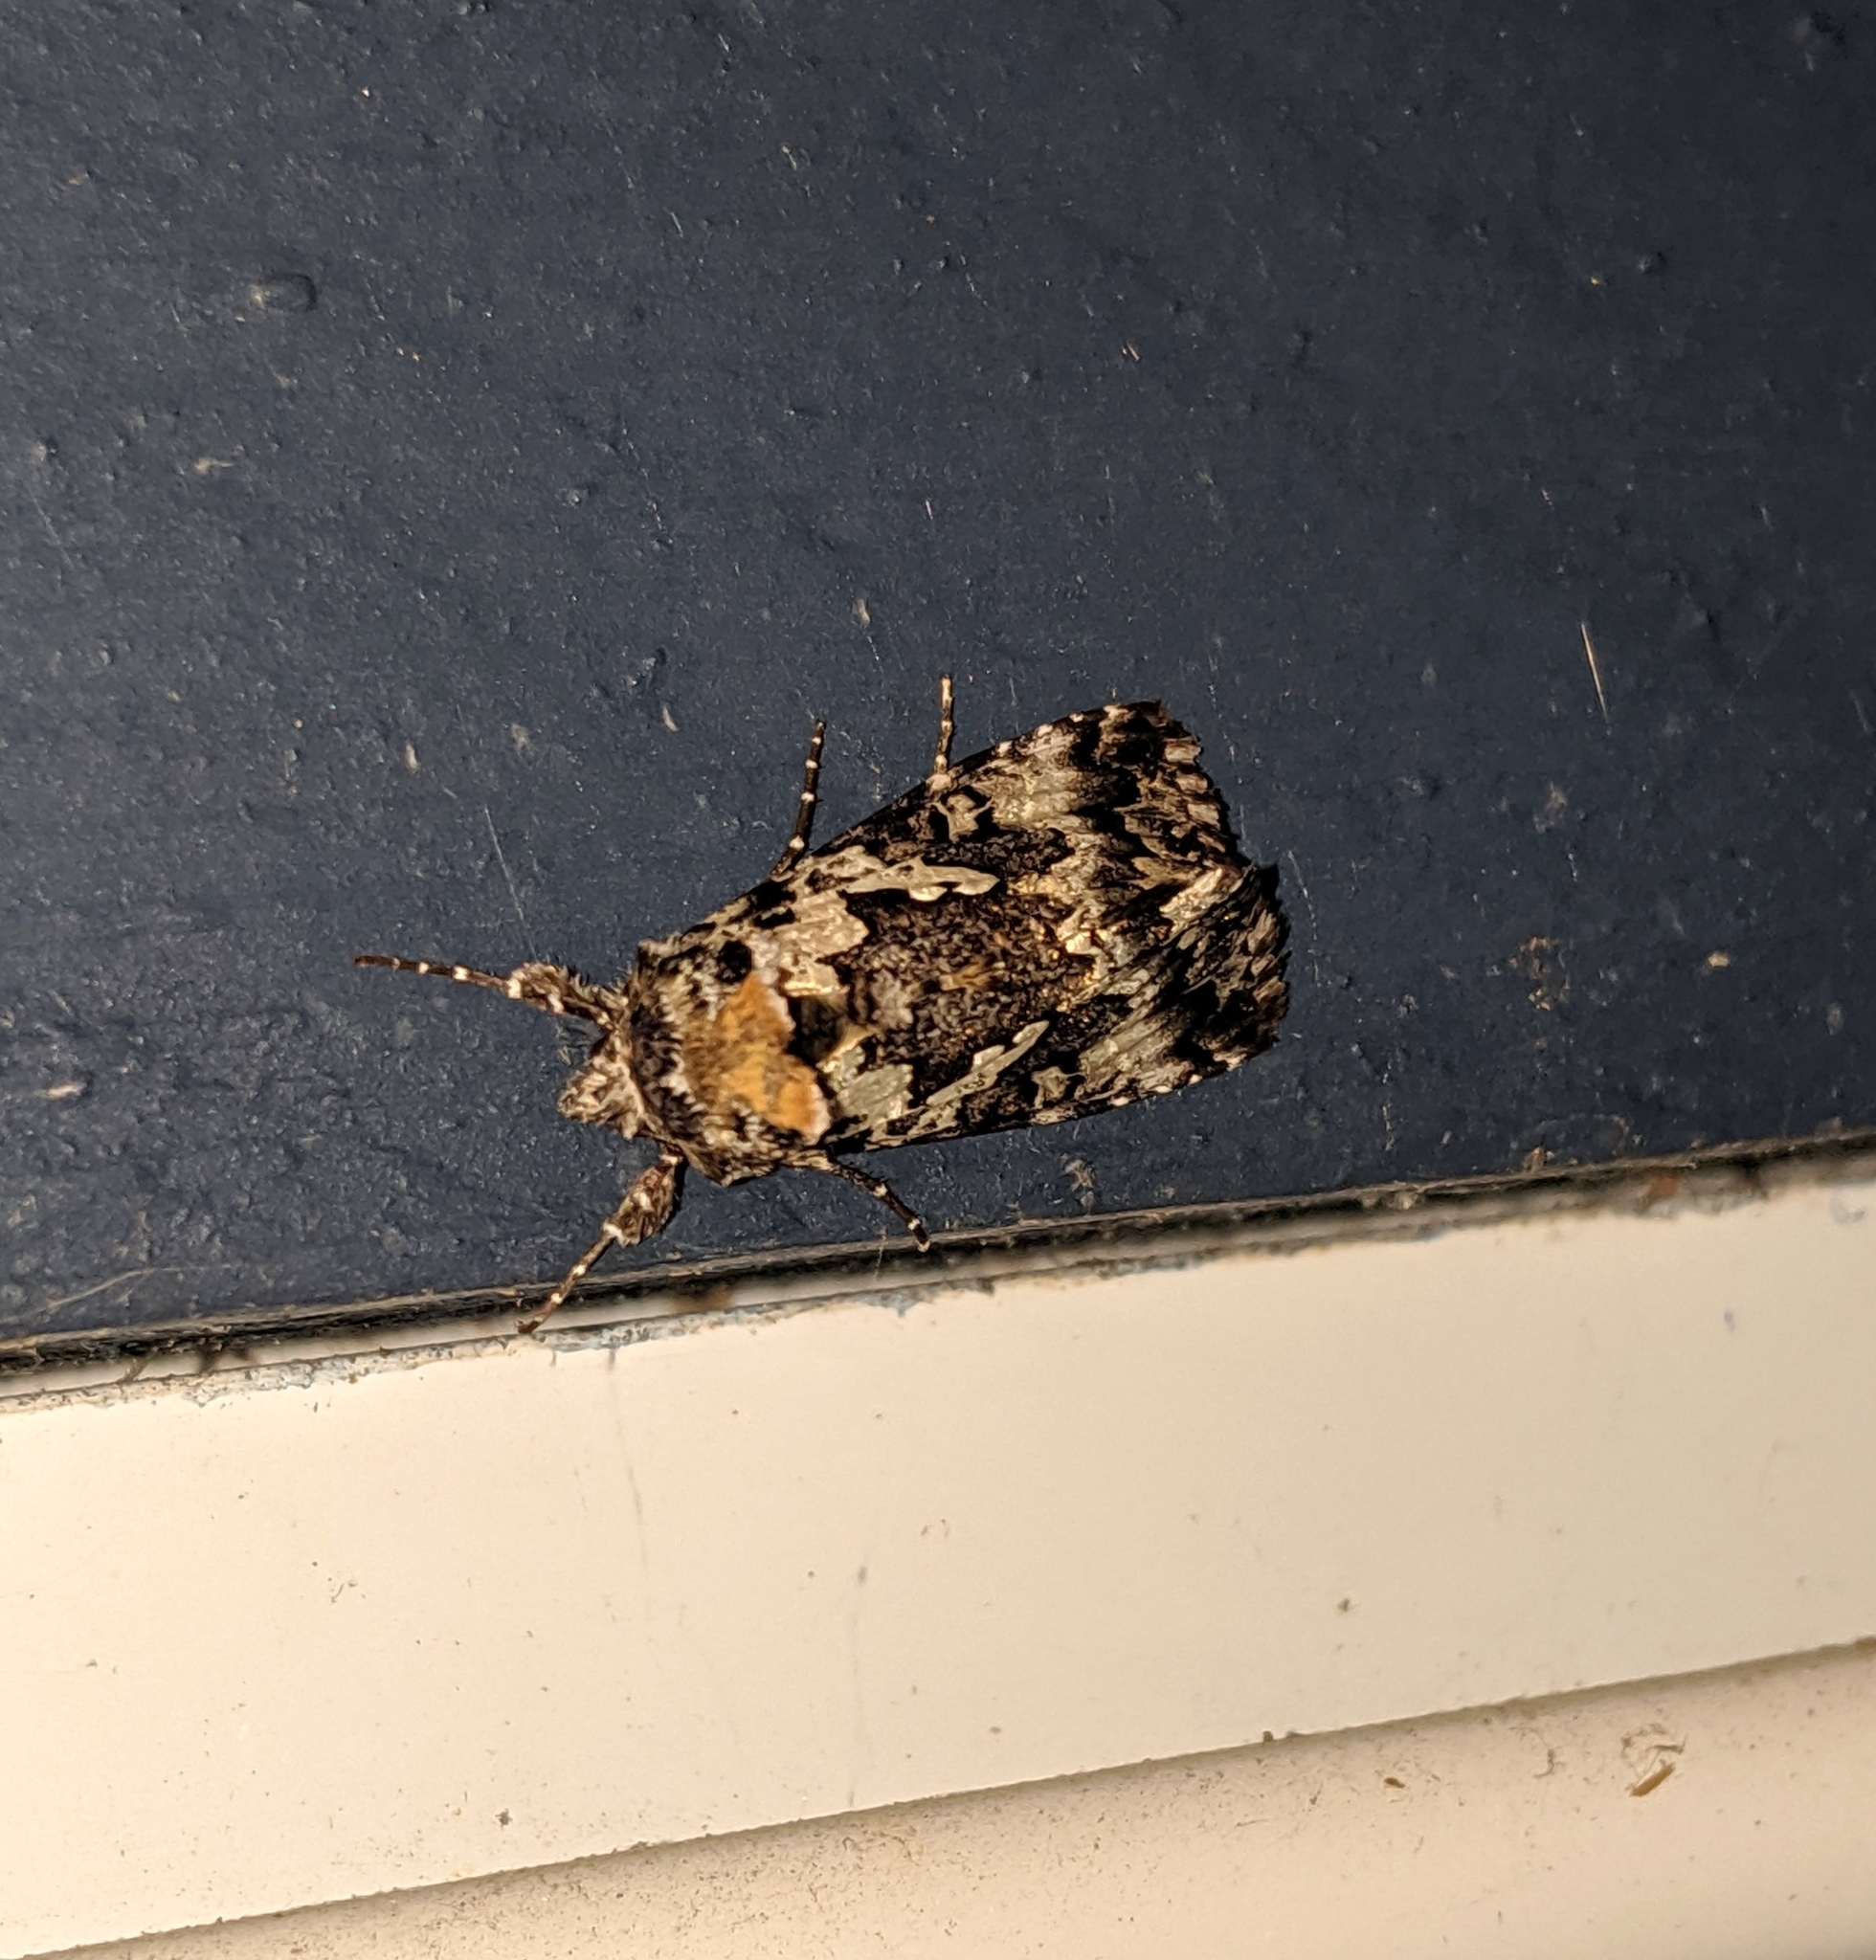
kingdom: Animalia
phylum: Arthropoda
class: Insecta
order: Lepidoptera
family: Noctuidae
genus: Syngrapha
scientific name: Syngrapha rectangula
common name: Angulated cutworm
